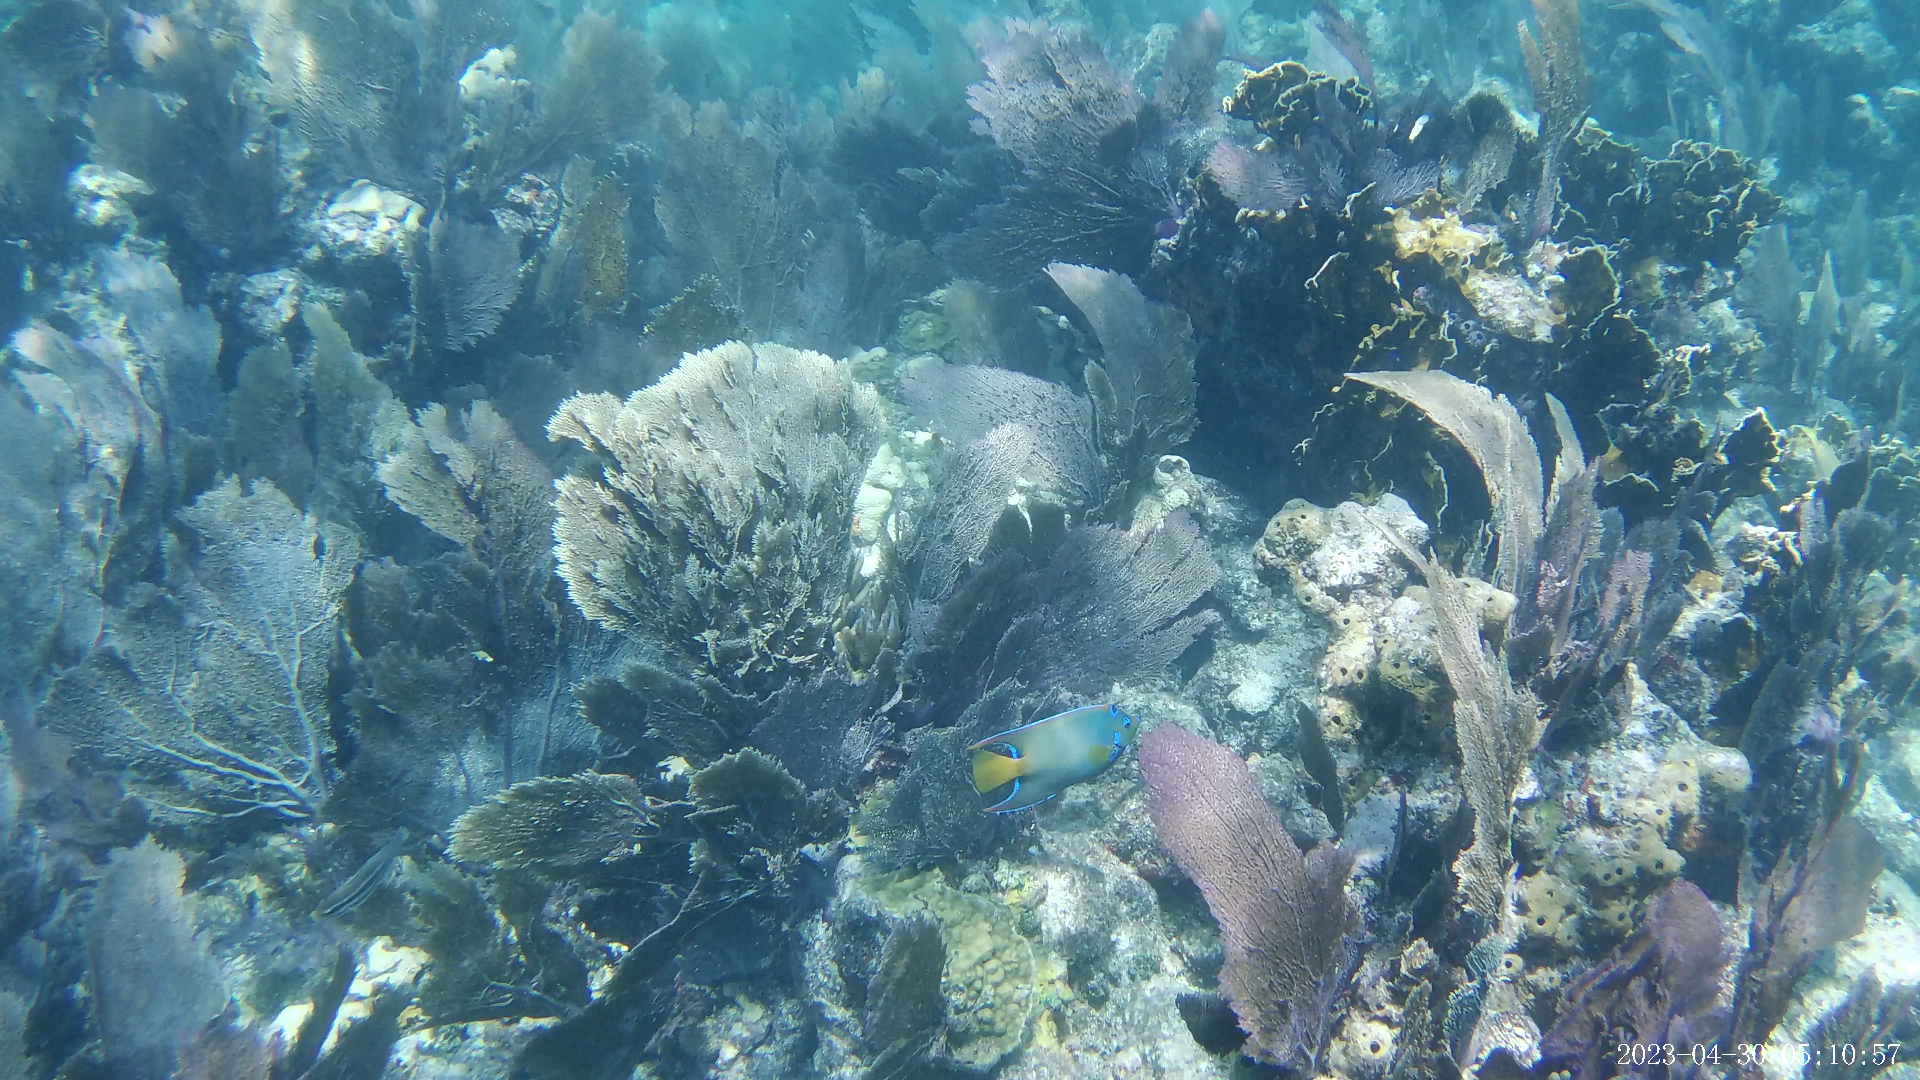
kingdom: Animalia
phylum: Chordata
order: Perciformes
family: Pomacanthidae
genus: Holacanthus
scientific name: Holacanthus ciliaris
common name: Queen angelfish
